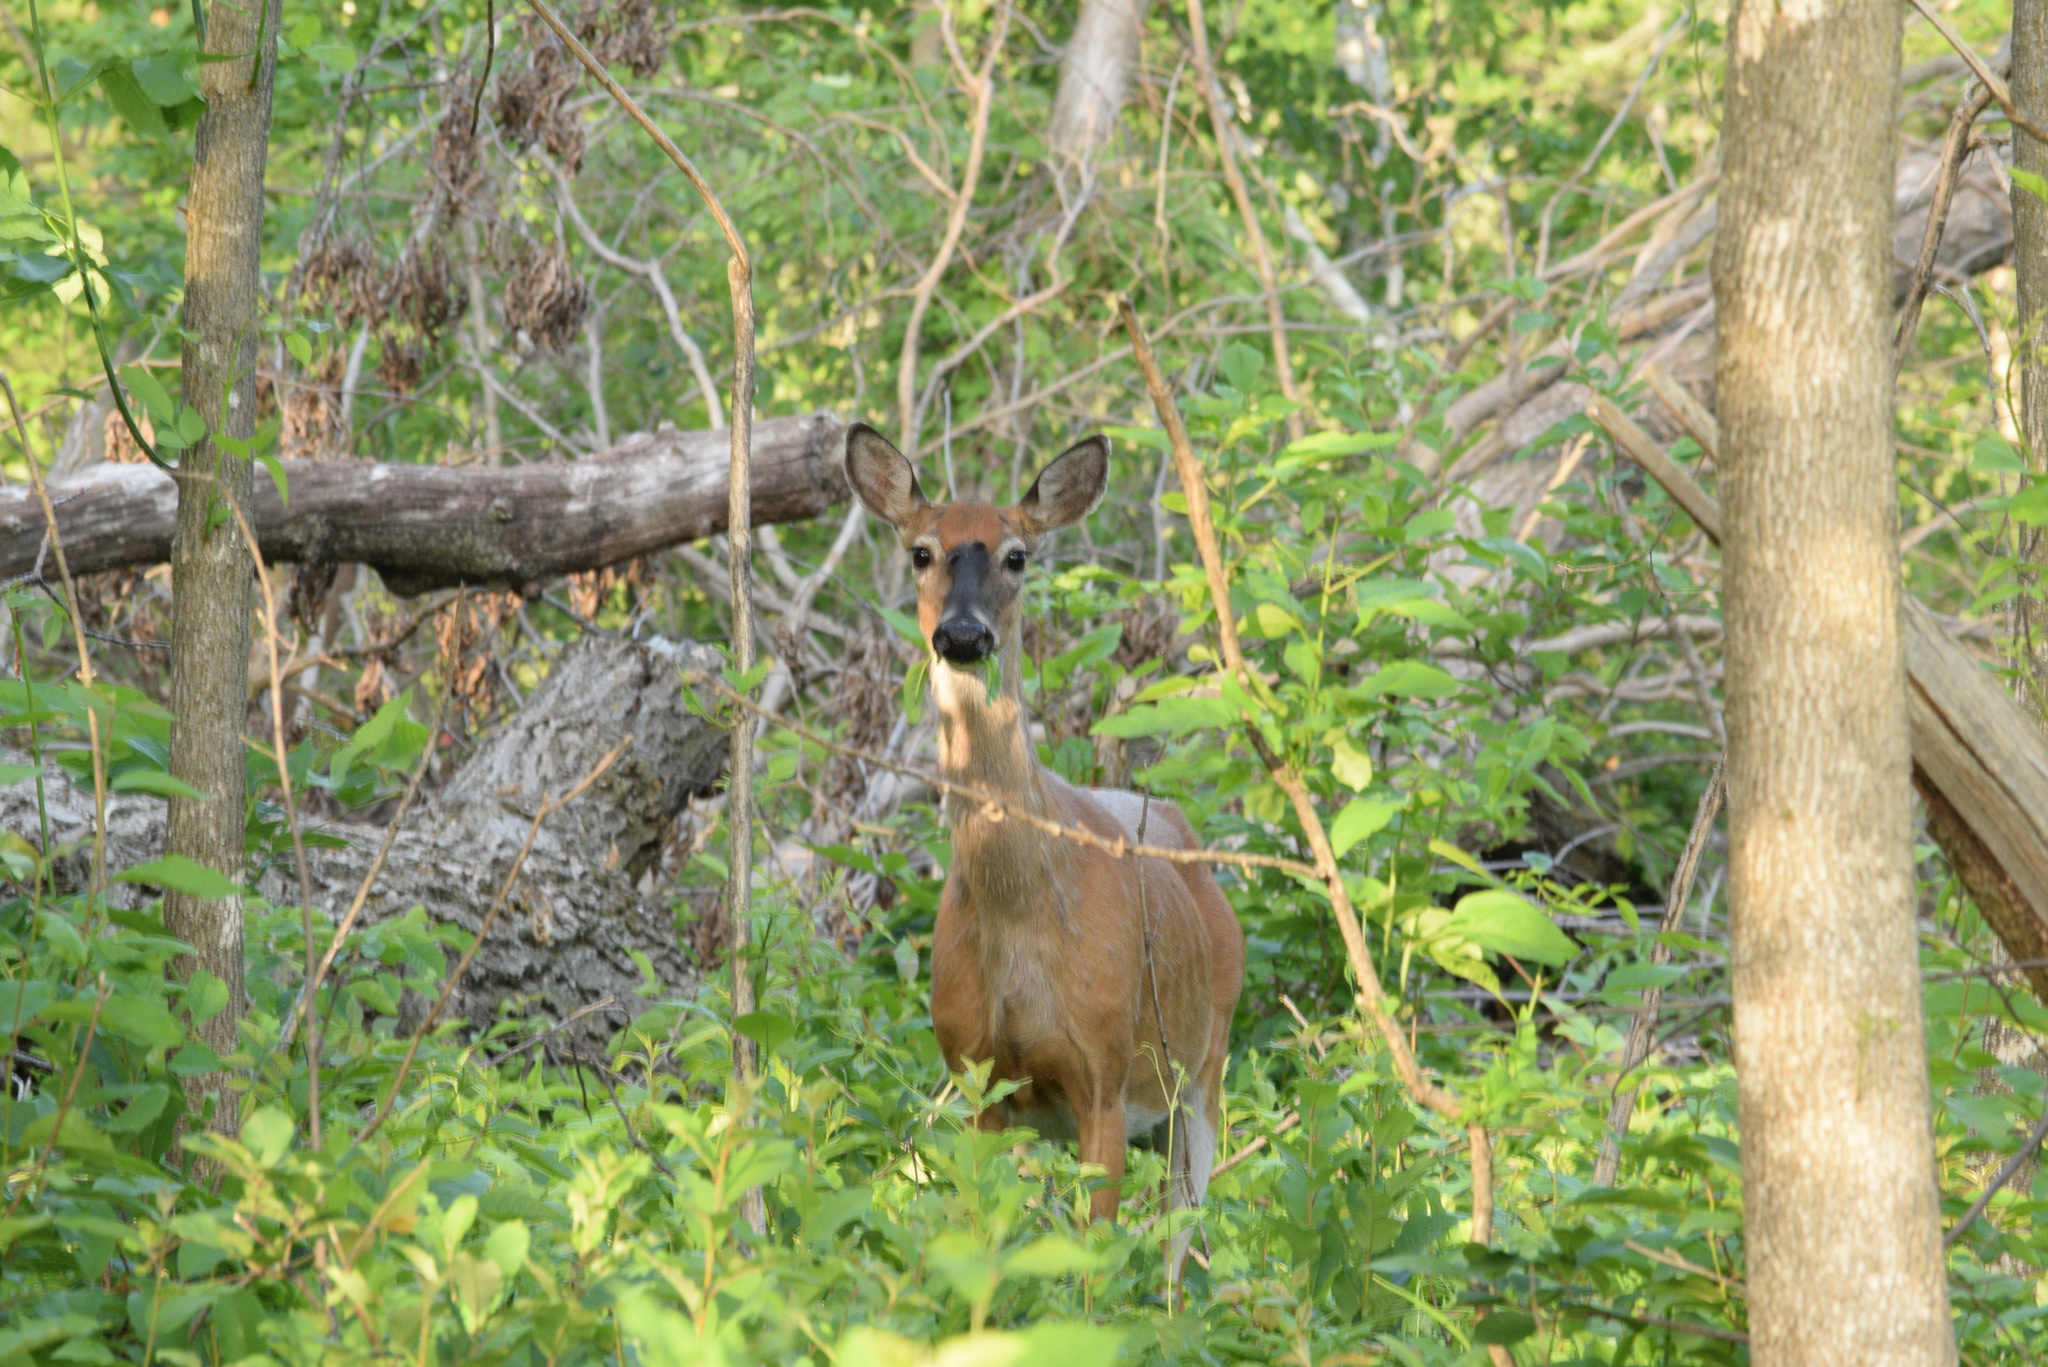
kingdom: Animalia
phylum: Chordata
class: Mammalia
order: Artiodactyla
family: Cervidae
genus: Odocoileus
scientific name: Odocoileus virginianus
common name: White-tailed deer
